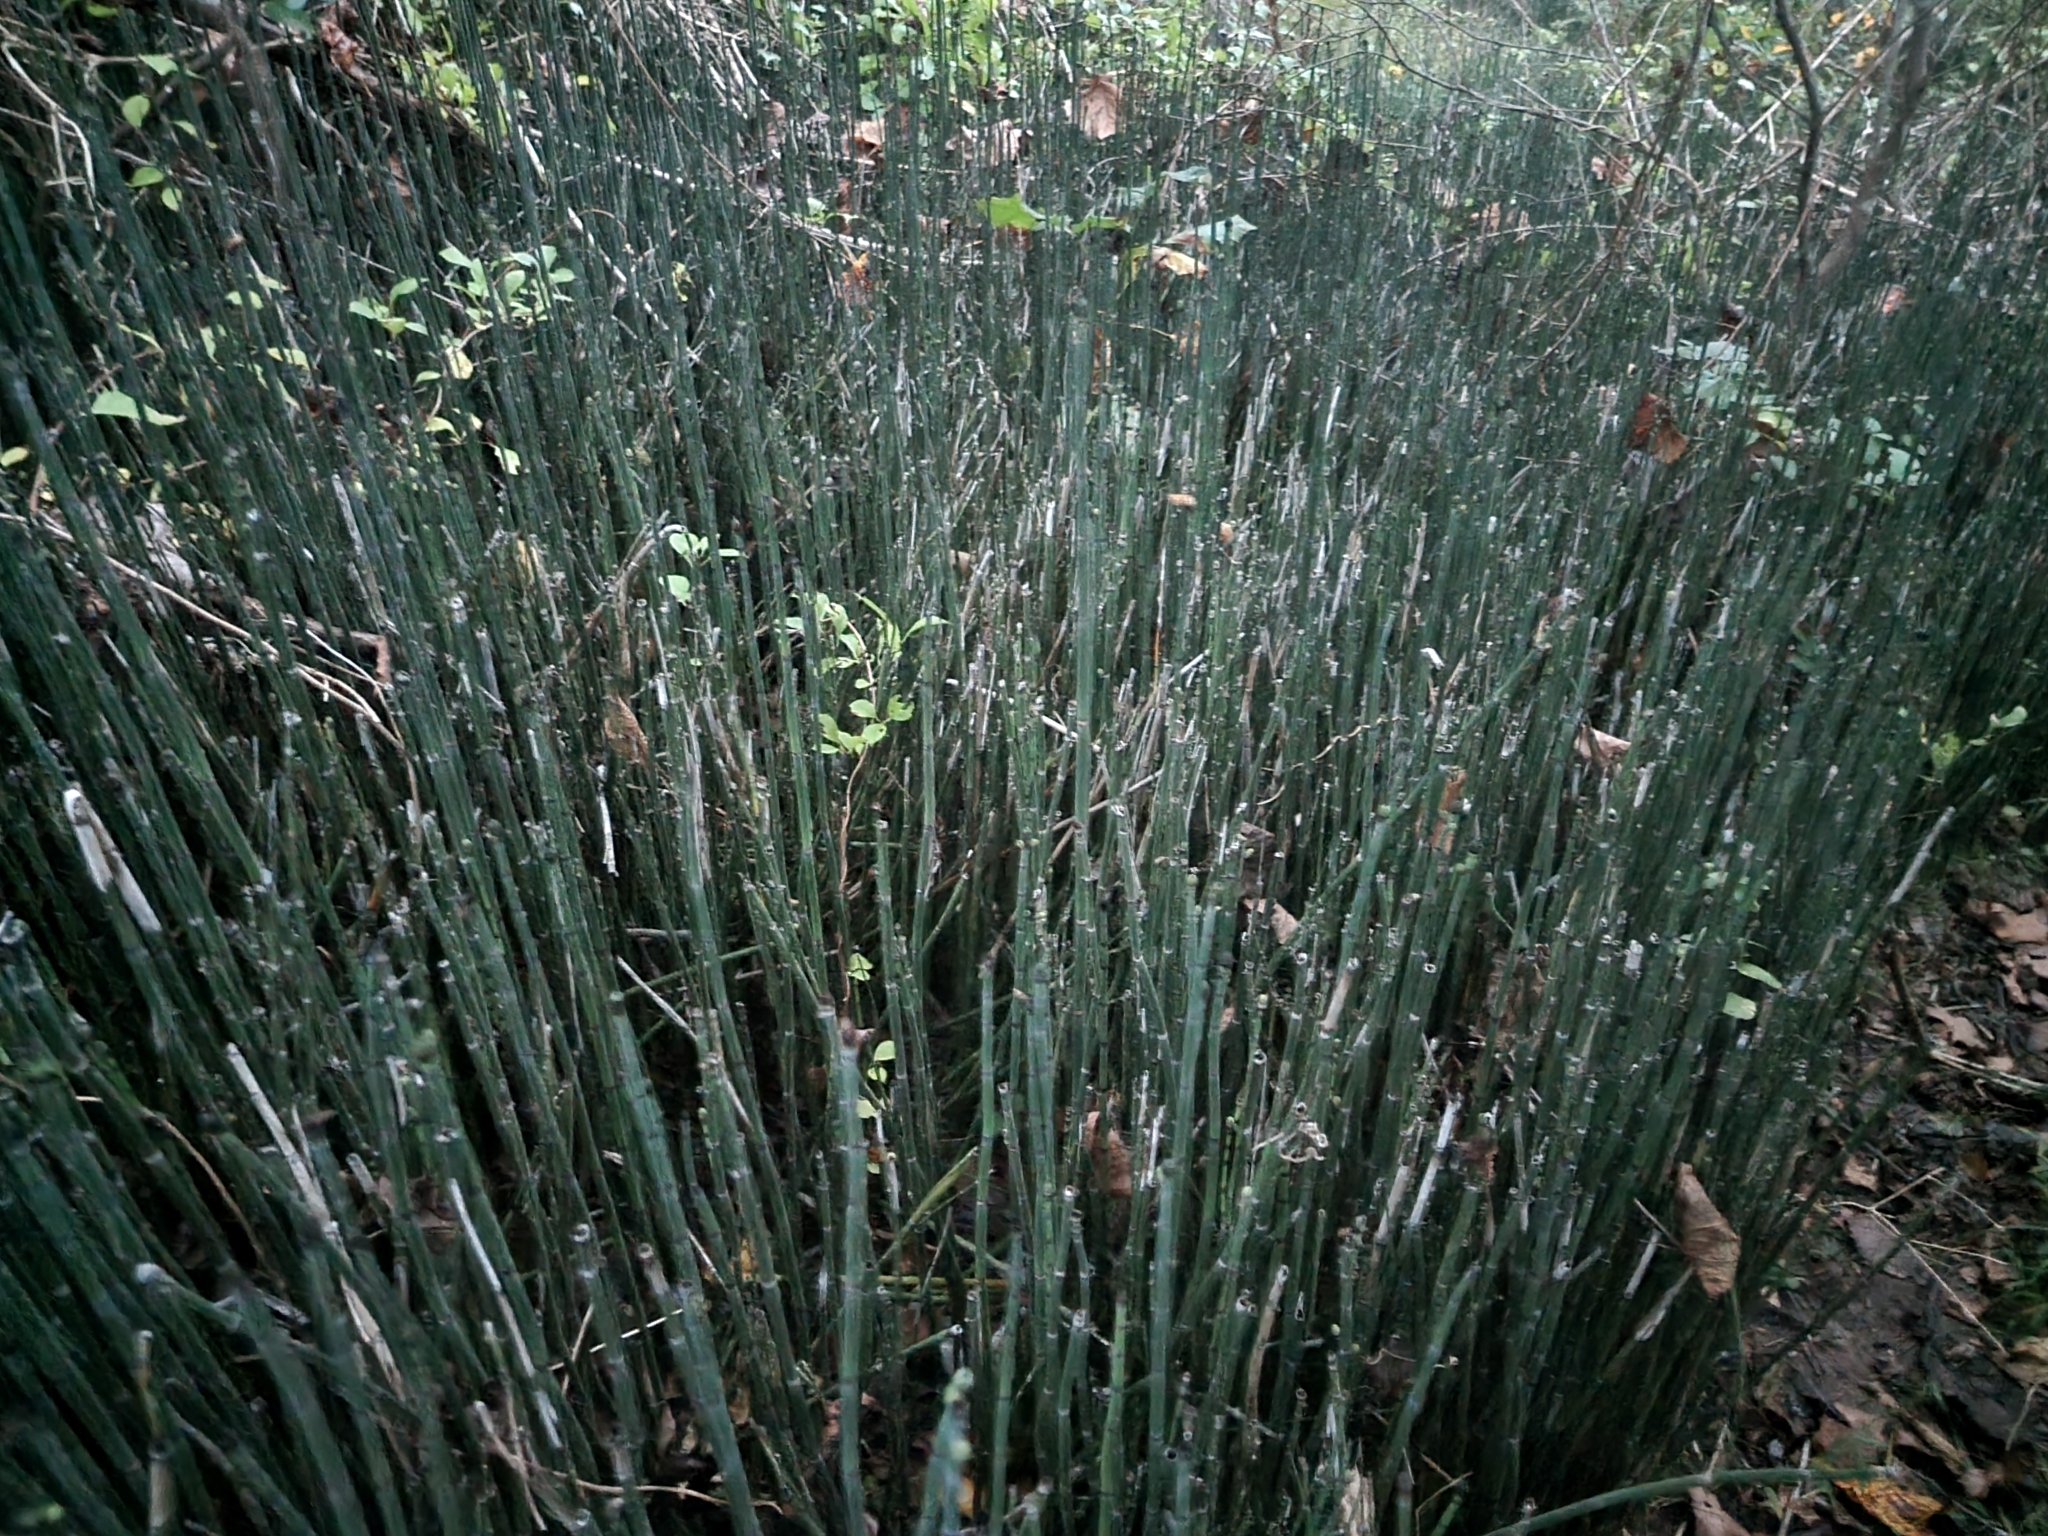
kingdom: Plantae
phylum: Tracheophyta
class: Polypodiopsida
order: Equisetales
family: Equisetaceae
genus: Equisetum
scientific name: Equisetum hyemale
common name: Rough horsetail
